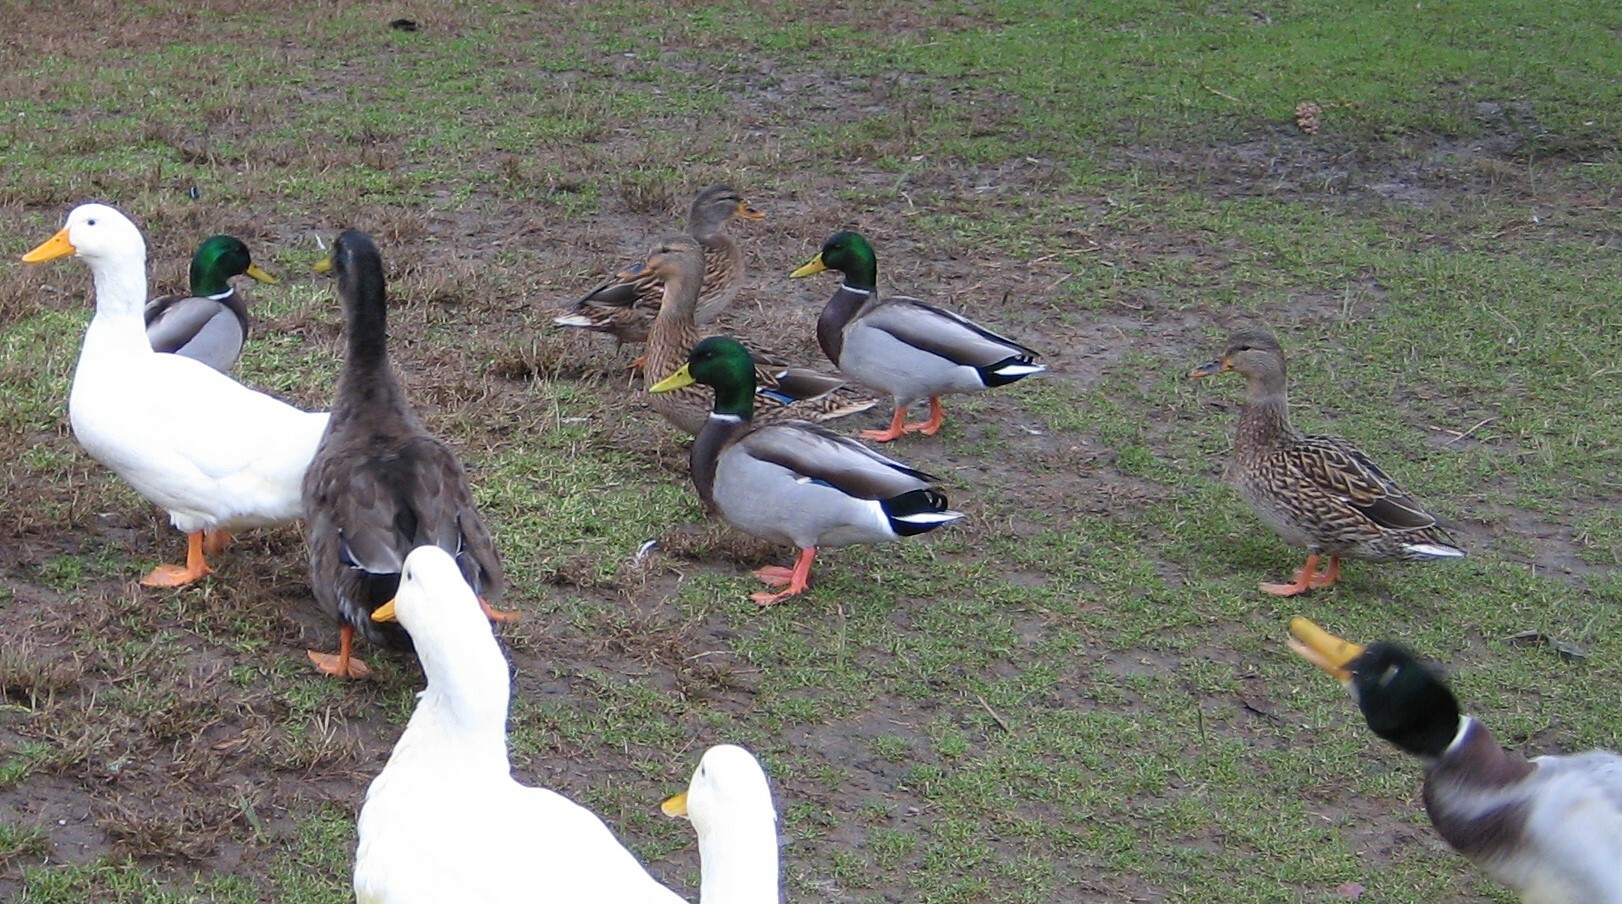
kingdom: Animalia
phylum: Chordata
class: Aves
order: Anseriformes
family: Anatidae
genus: Anas
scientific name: Anas platyrhynchos
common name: Mallard
